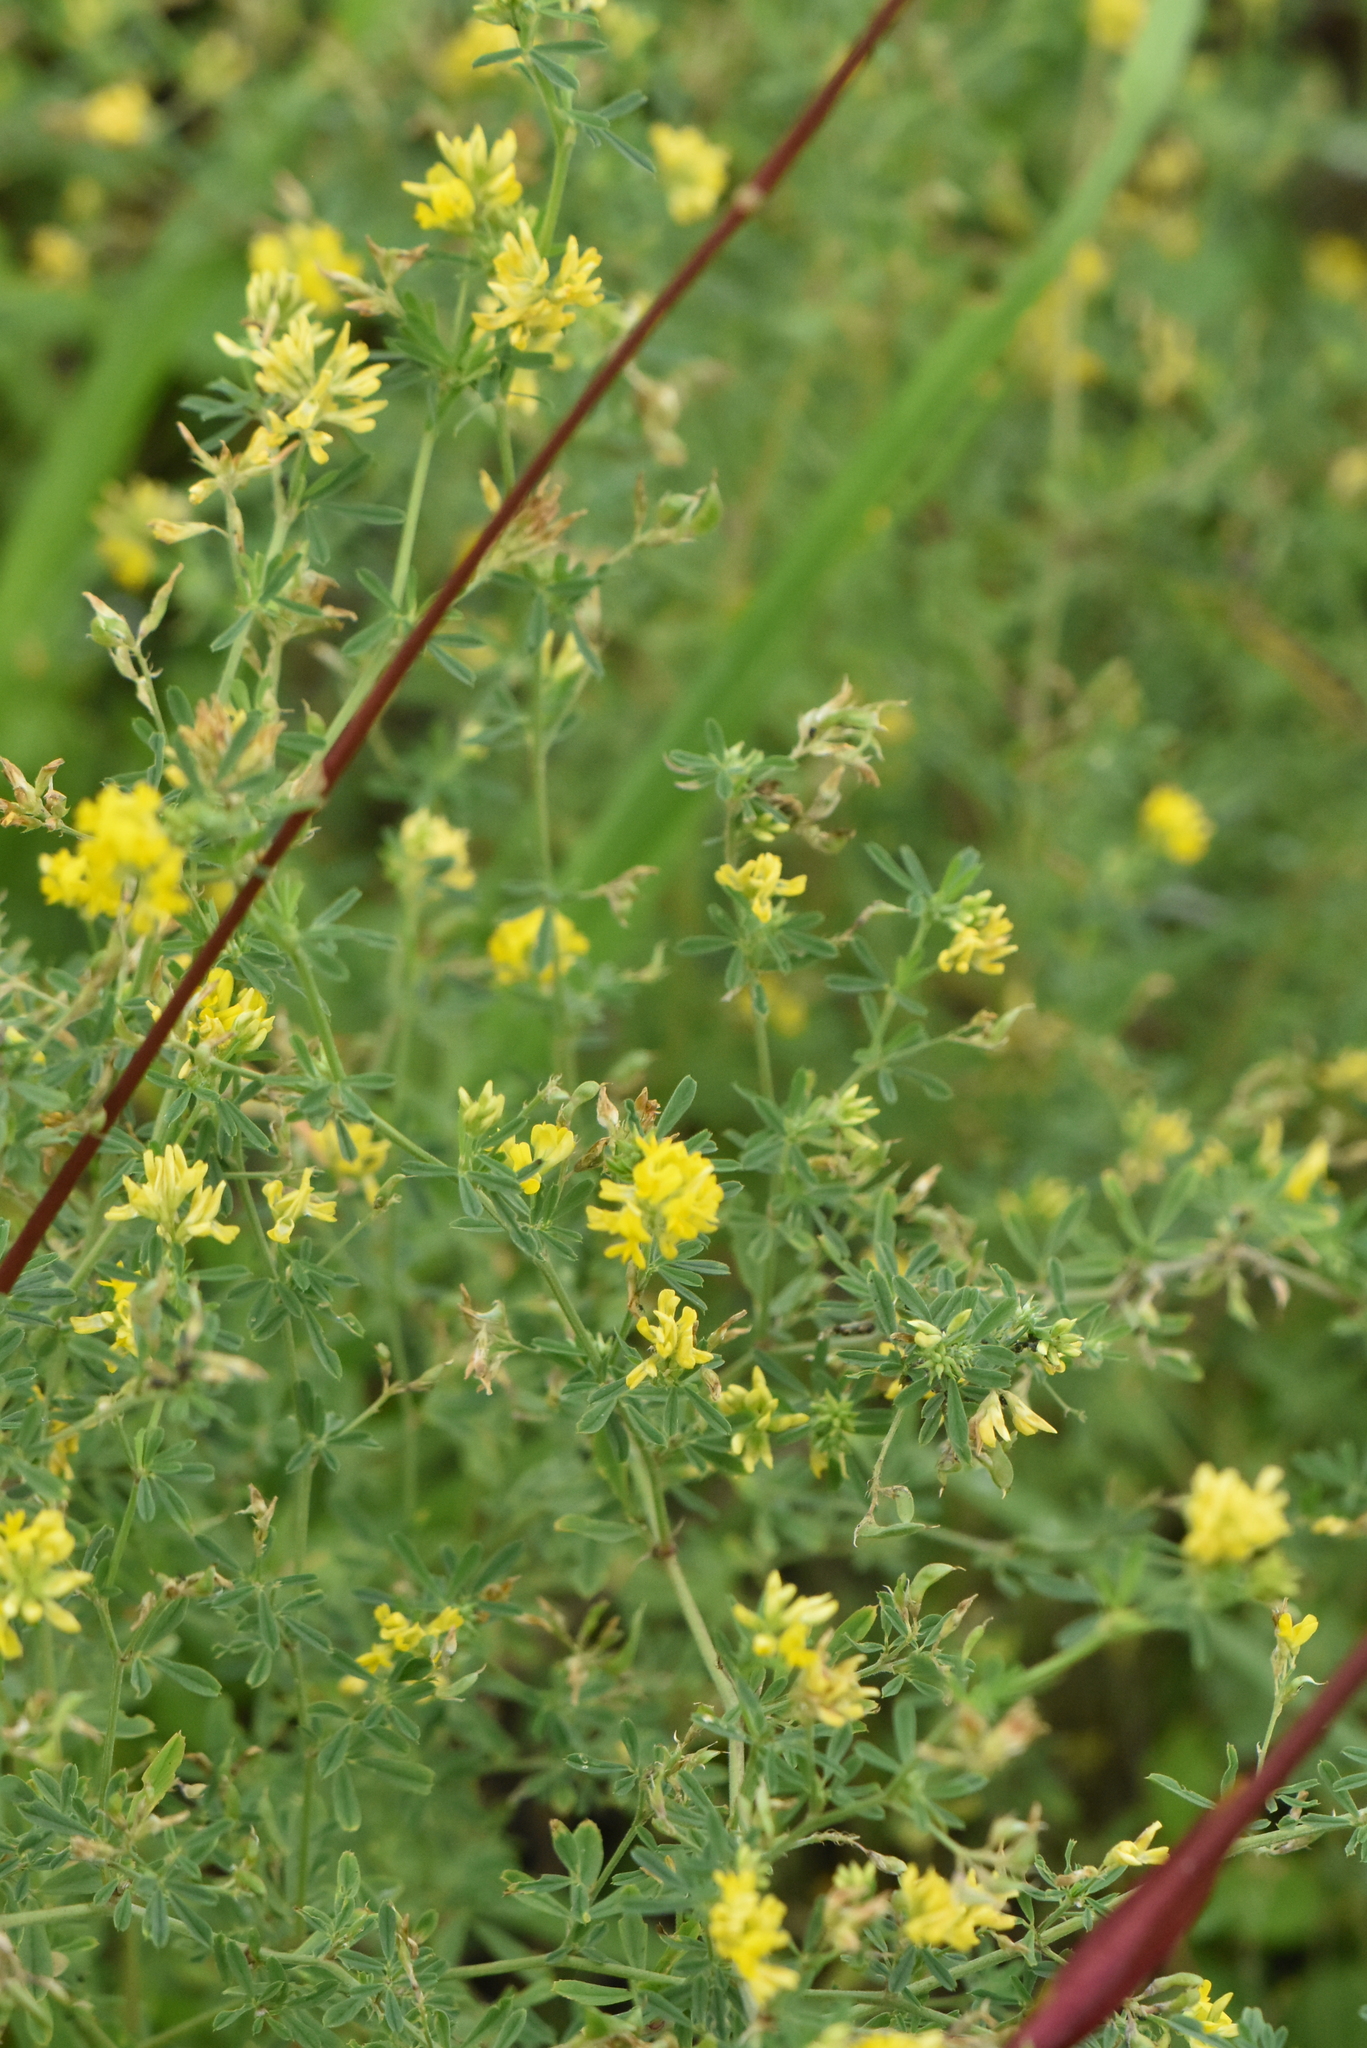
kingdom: Plantae
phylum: Tracheophyta
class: Magnoliopsida
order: Fabales
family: Fabaceae
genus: Medicago
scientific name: Medicago falcata
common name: Sickle medick
